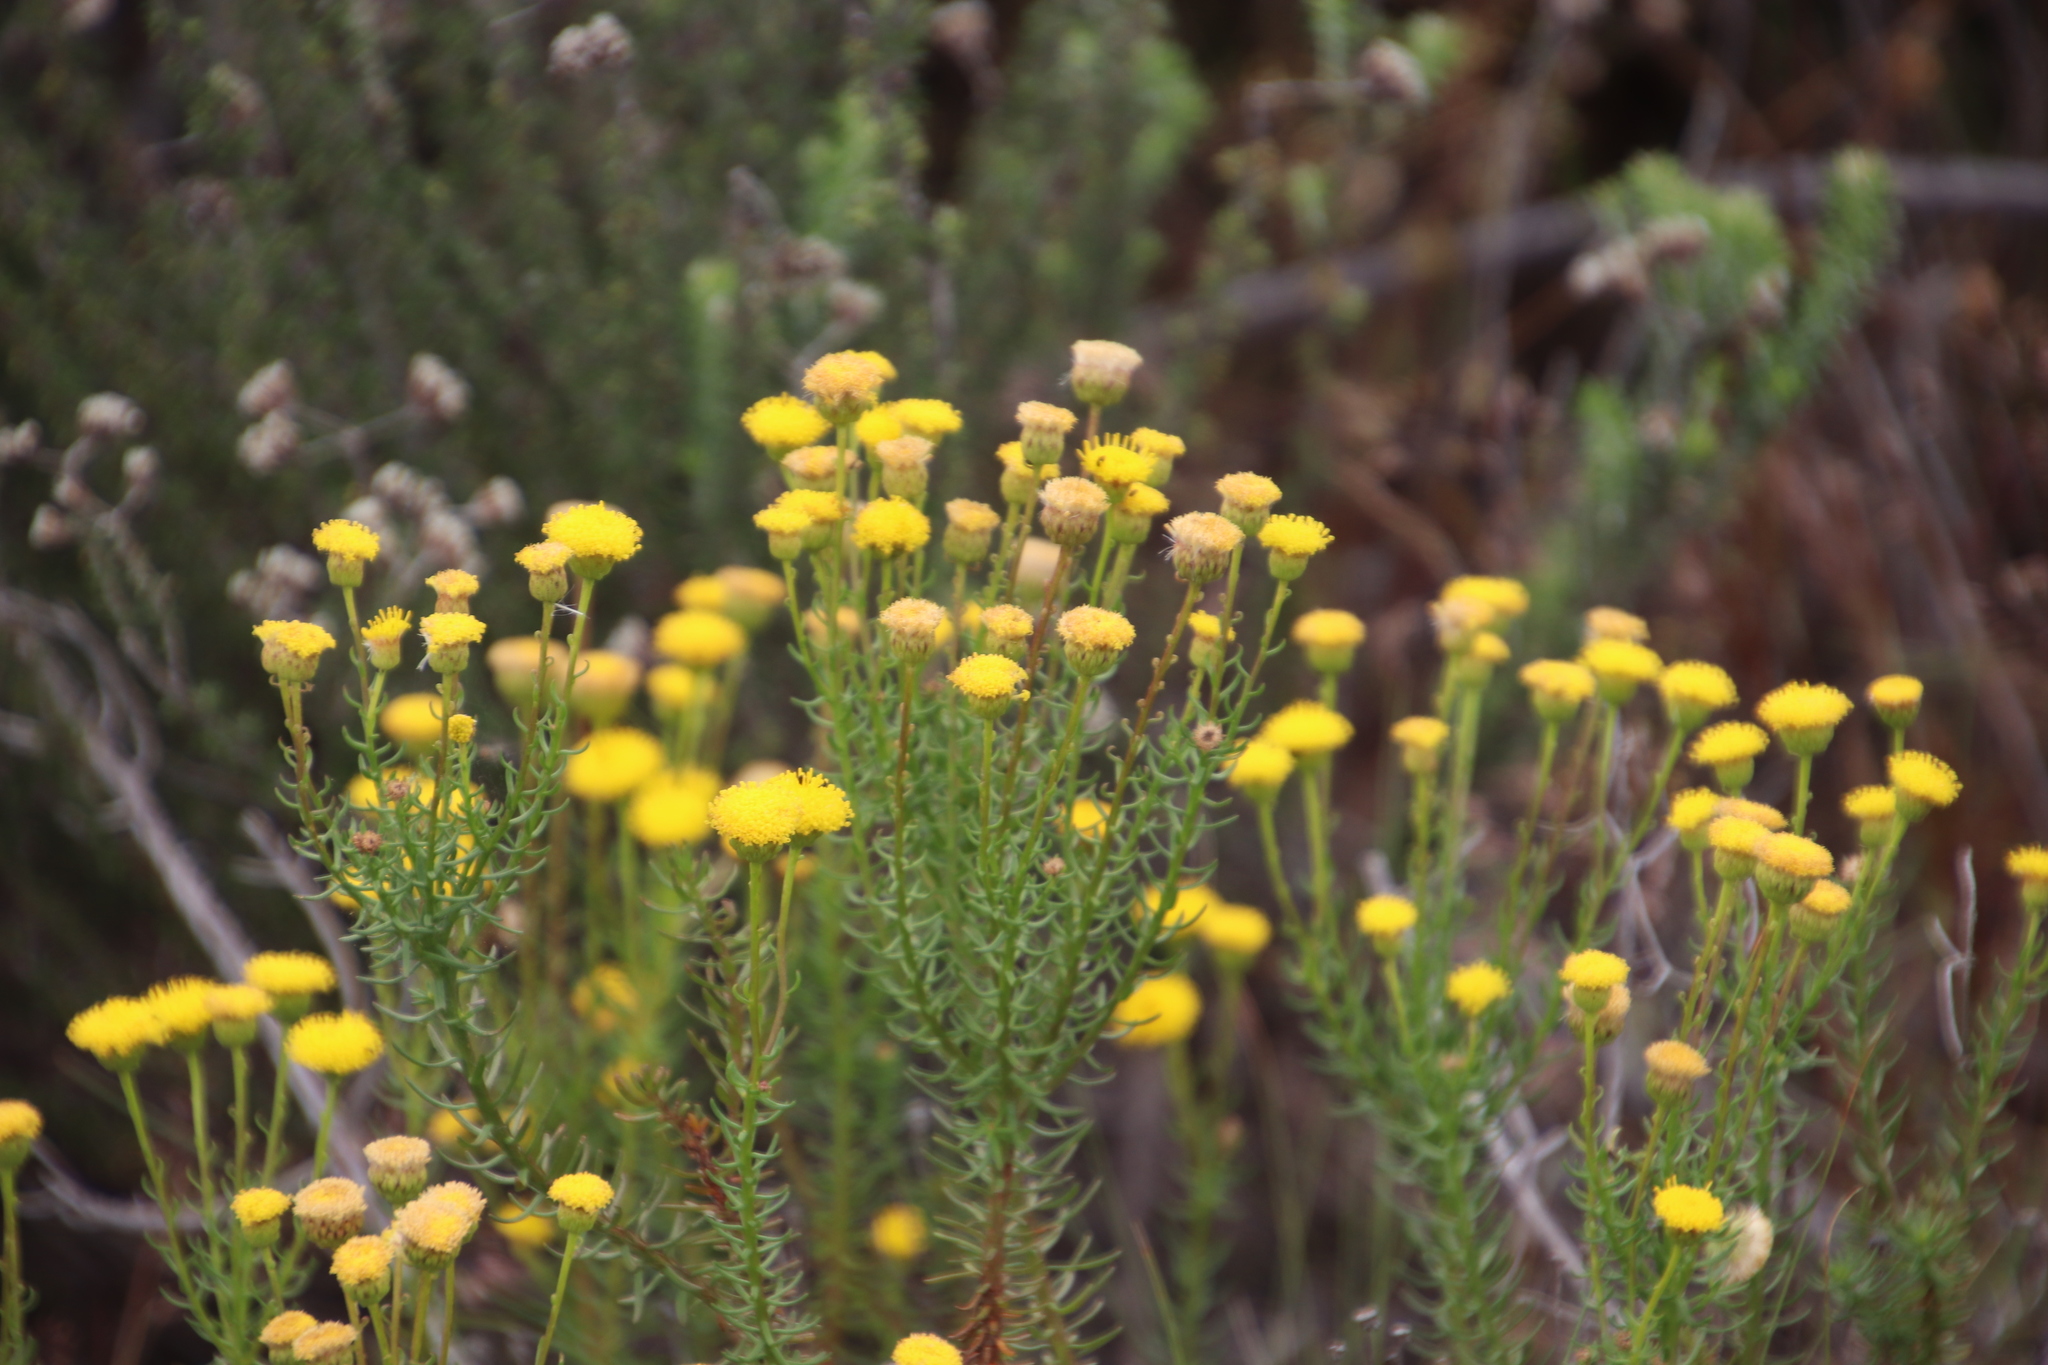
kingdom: Plantae
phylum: Tracheophyta
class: Magnoliopsida
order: Asterales
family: Asteraceae
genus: Chrysocoma
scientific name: Chrysocoma cernua
